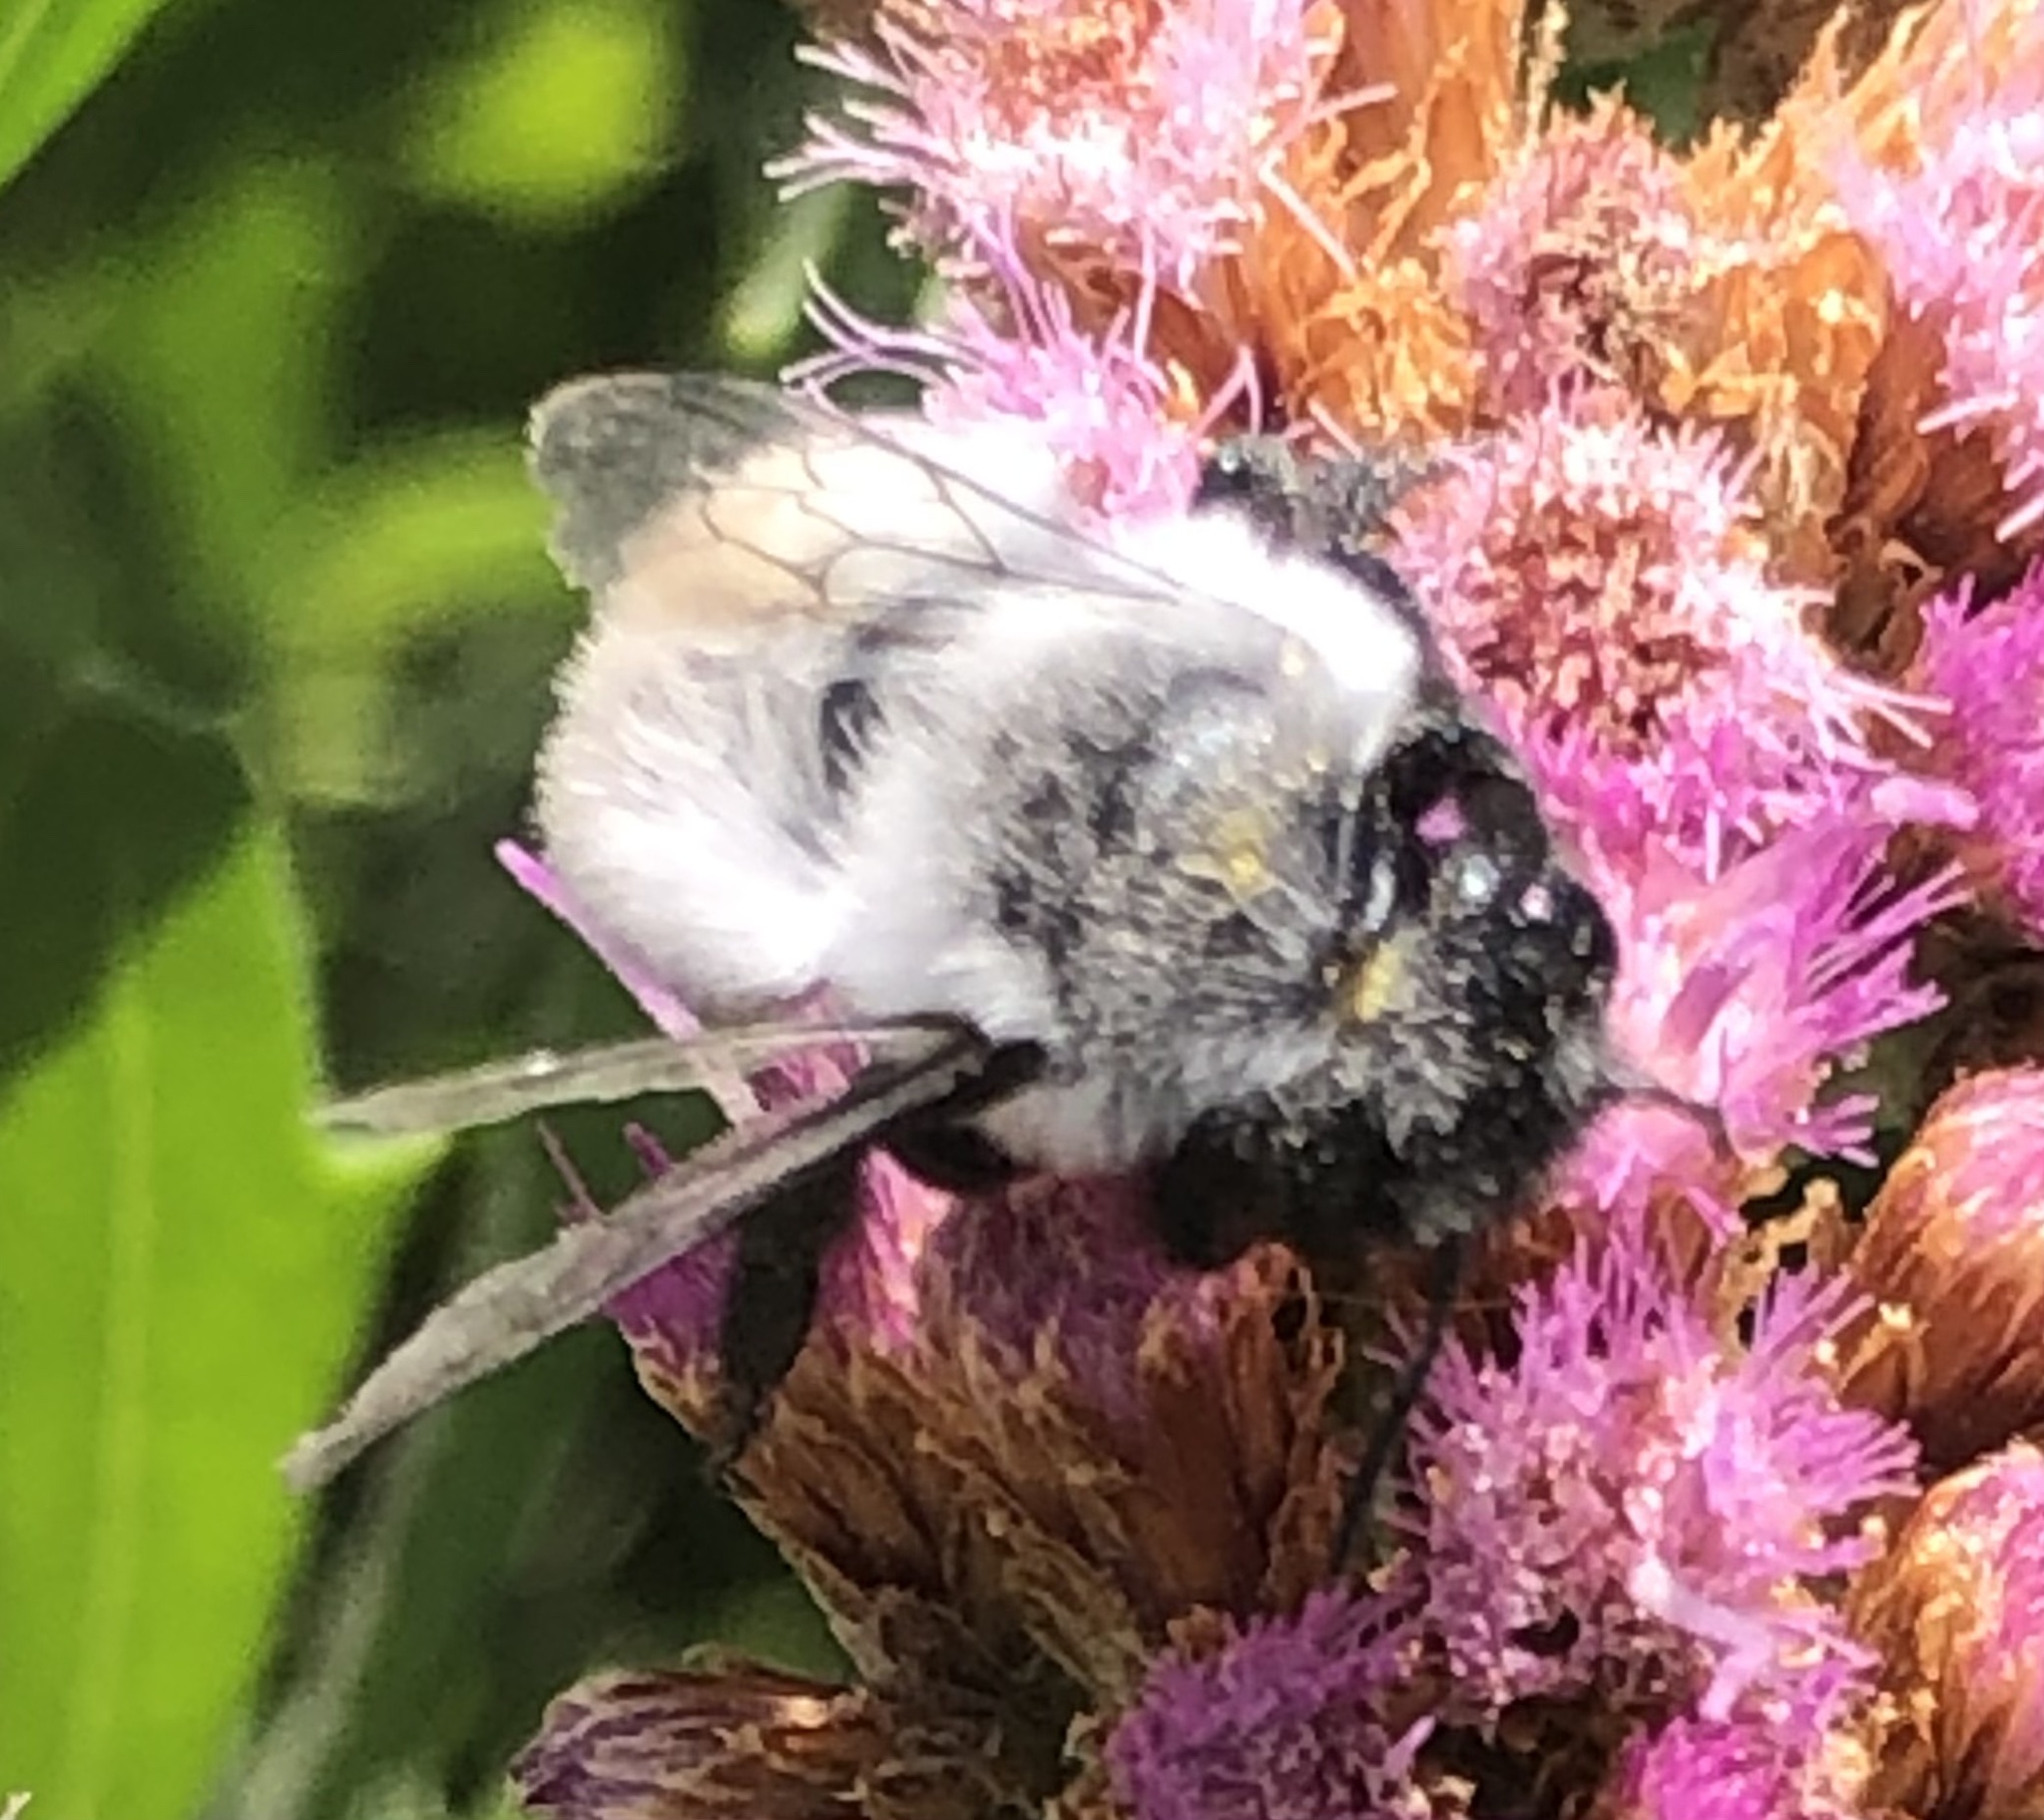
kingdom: Animalia
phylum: Arthropoda
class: Insecta
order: Hymenoptera
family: Megachilidae
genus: Megachile
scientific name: Megachile saulcyi
